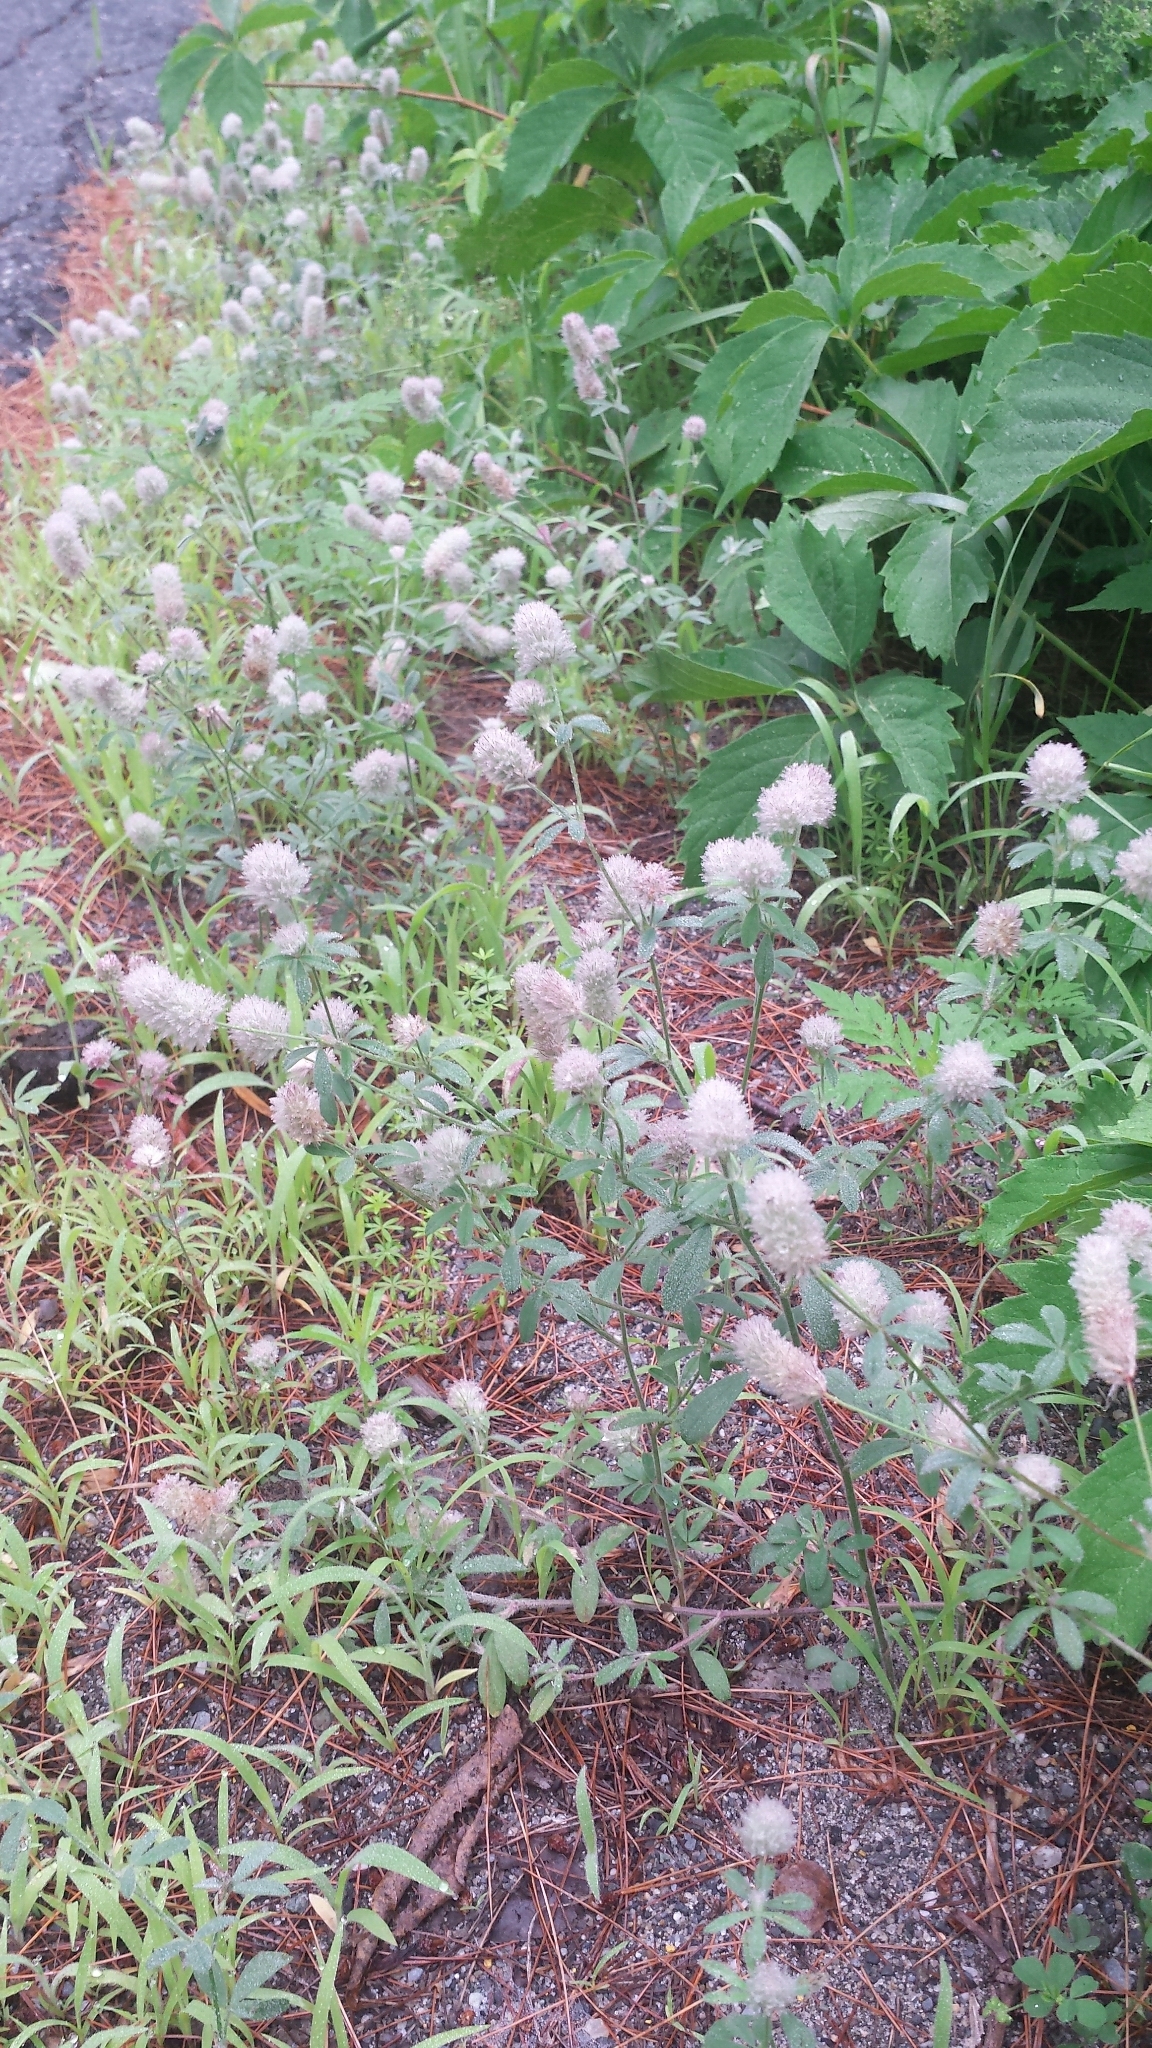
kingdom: Plantae
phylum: Tracheophyta
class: Magnoliopsida
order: Fabales
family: Fabaceae
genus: Trifolium
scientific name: Trifolium arvense
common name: Hare's-foot clover
